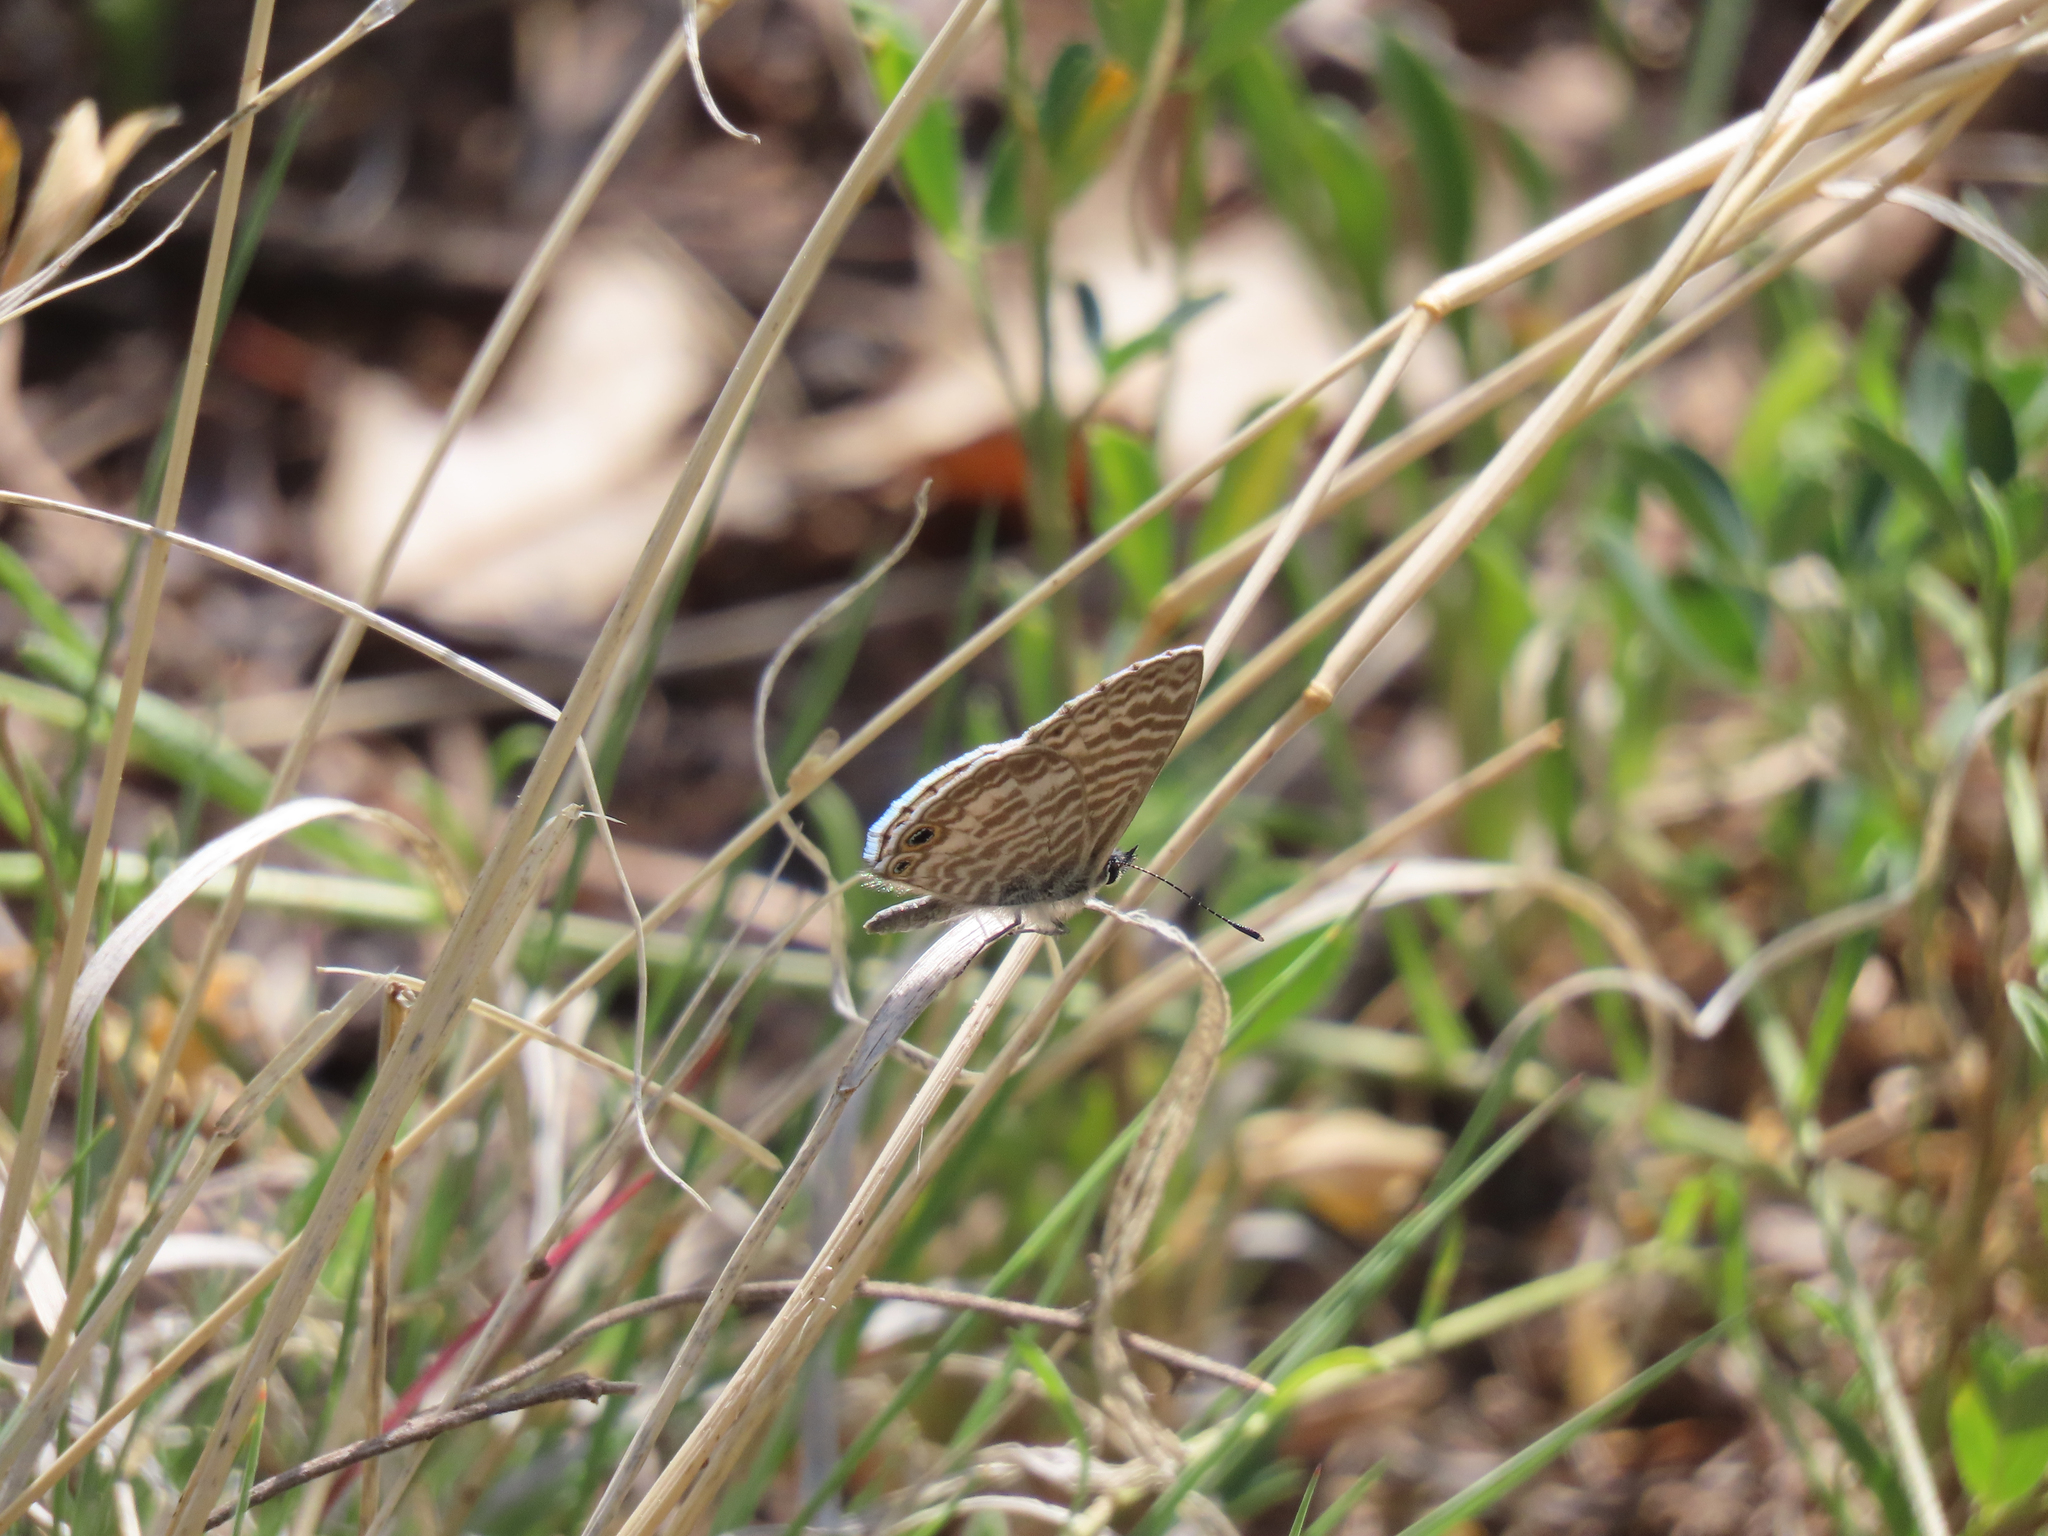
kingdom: Animalia
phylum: Arthropoda
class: Insecta
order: Lepidoptera
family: Lycaenidae
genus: Leptotes
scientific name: Leptotes marina
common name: Marine blue
